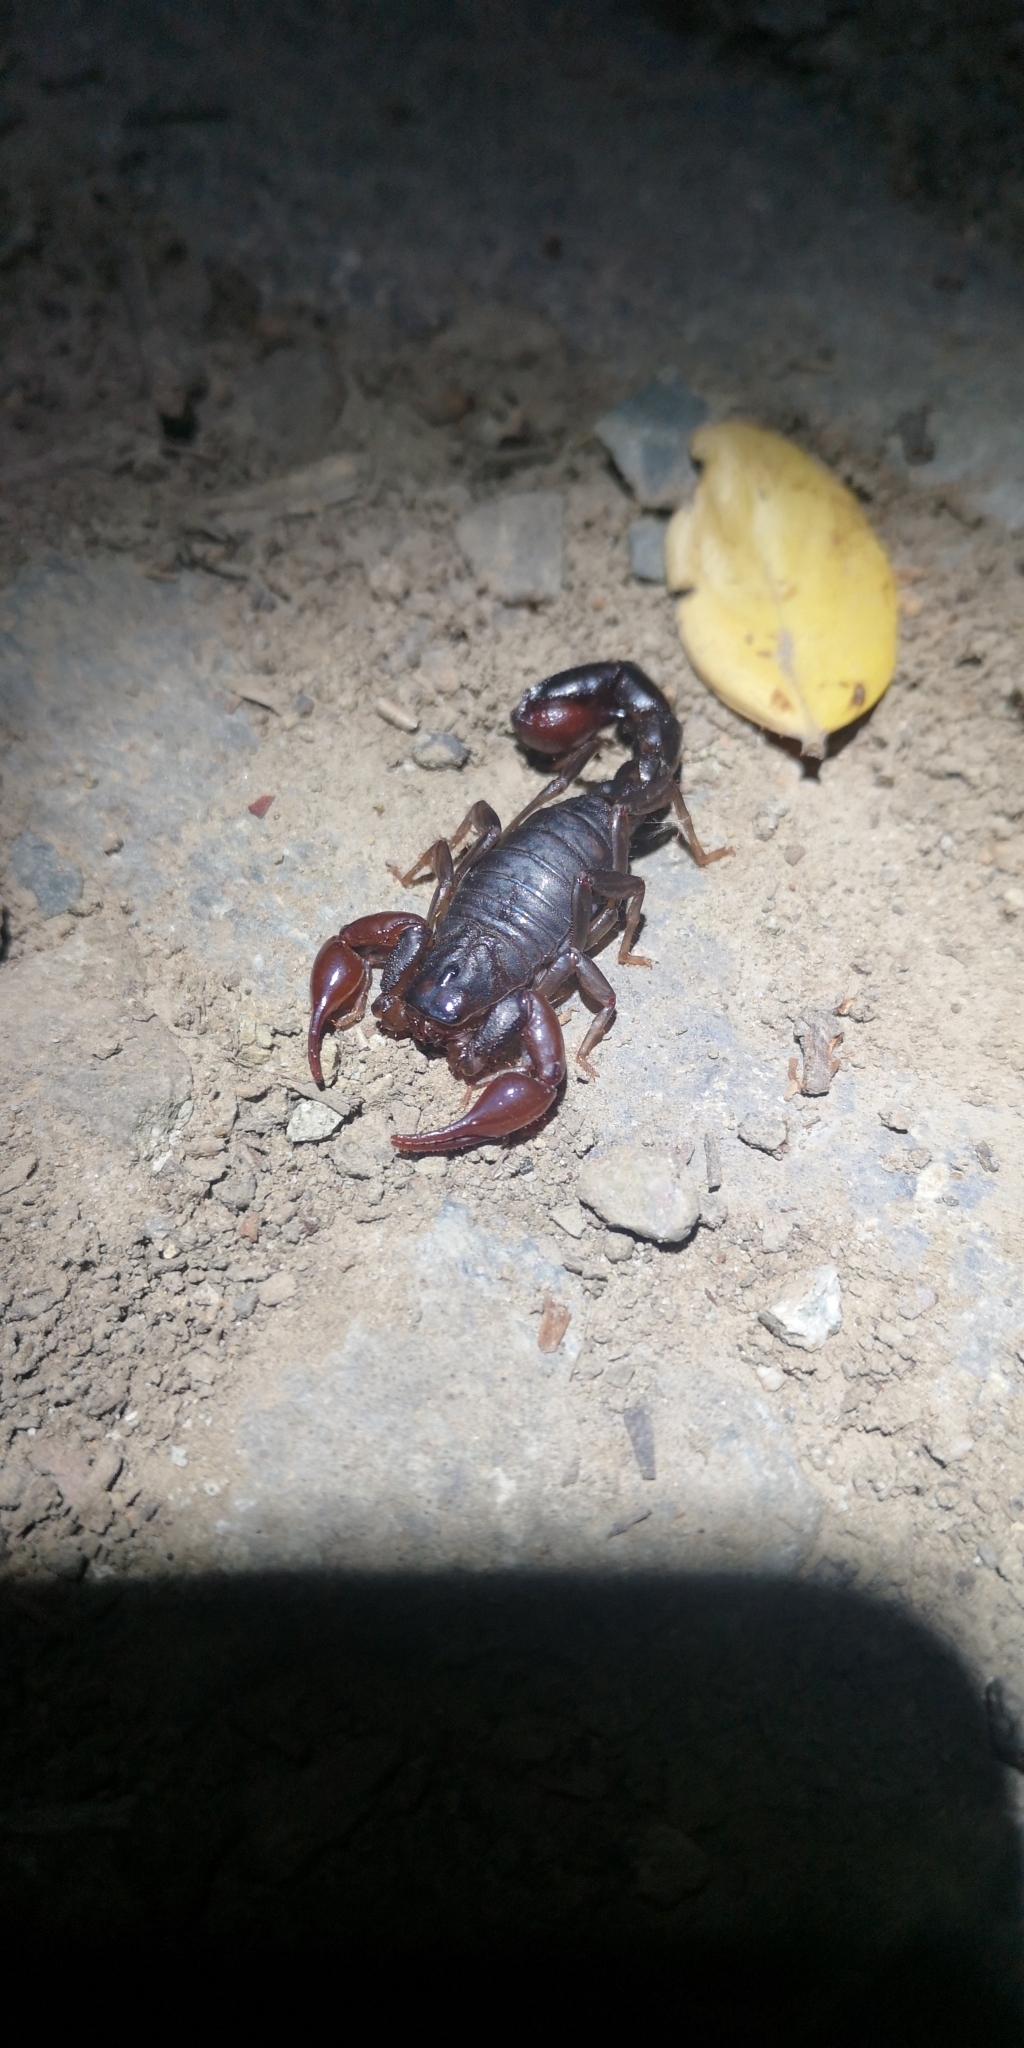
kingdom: Animalia
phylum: Arthropoda
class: Arachnida
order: Scorpiones
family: Caraboctonidae
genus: Caraboctonus
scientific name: Caraboctonus keyserlingi
